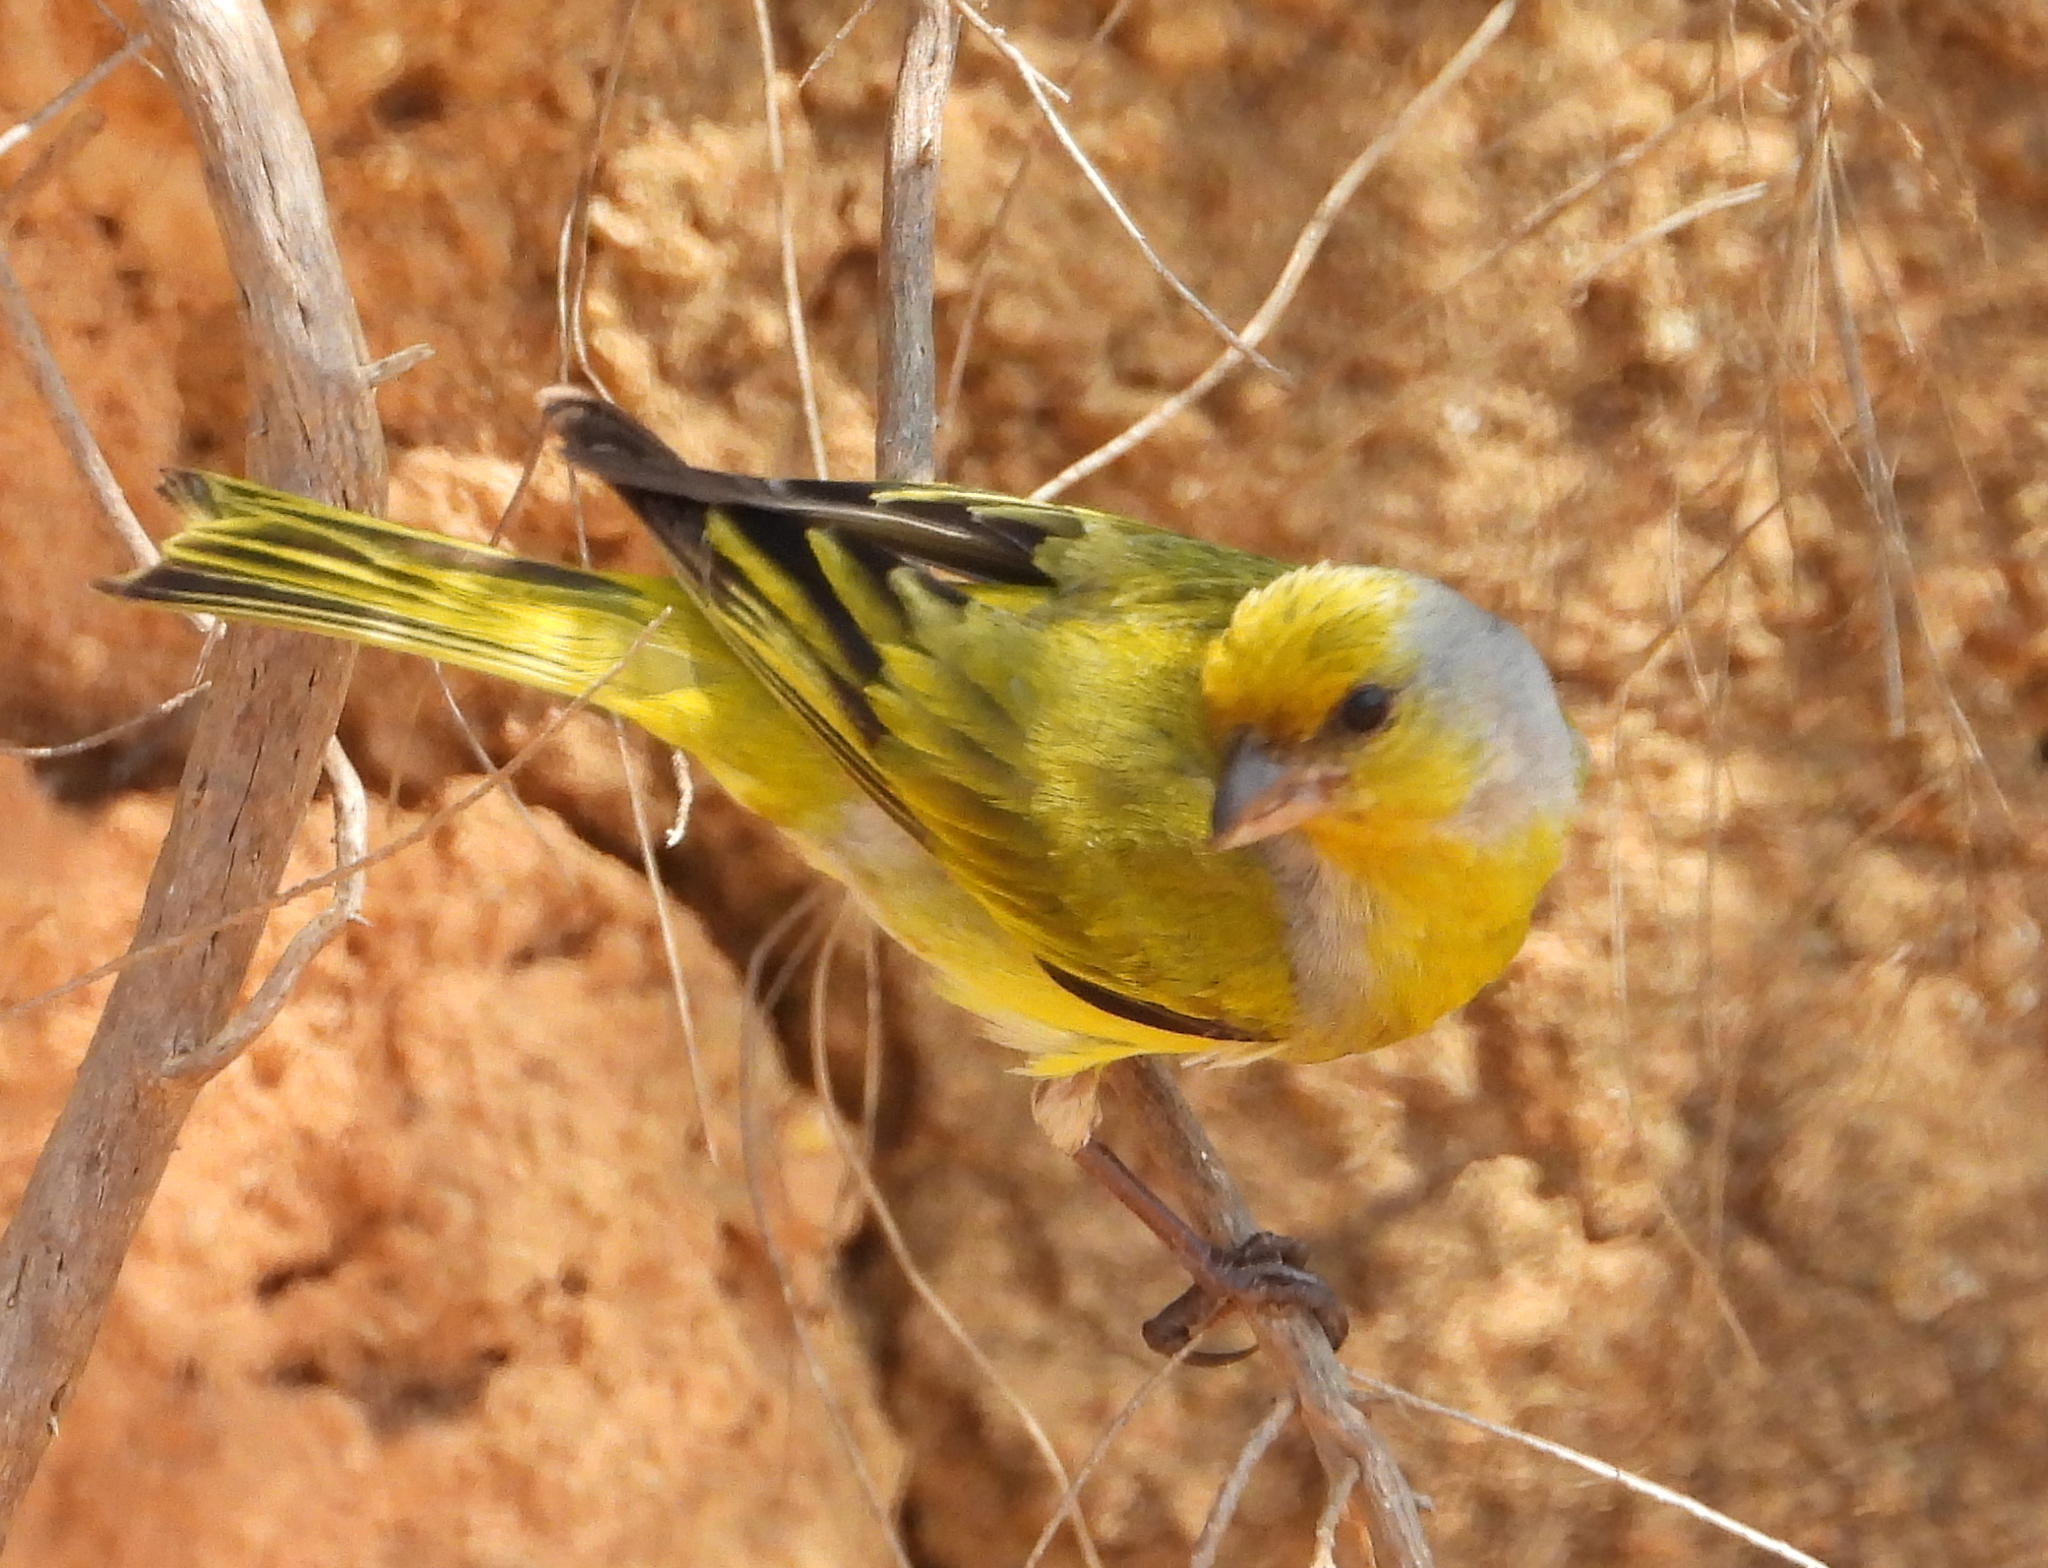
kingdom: Animalia
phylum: Chordata
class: Aves
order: Passeriformes
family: Fringillidae
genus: Serinus
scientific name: Serinus canicollis
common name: Cape canary
